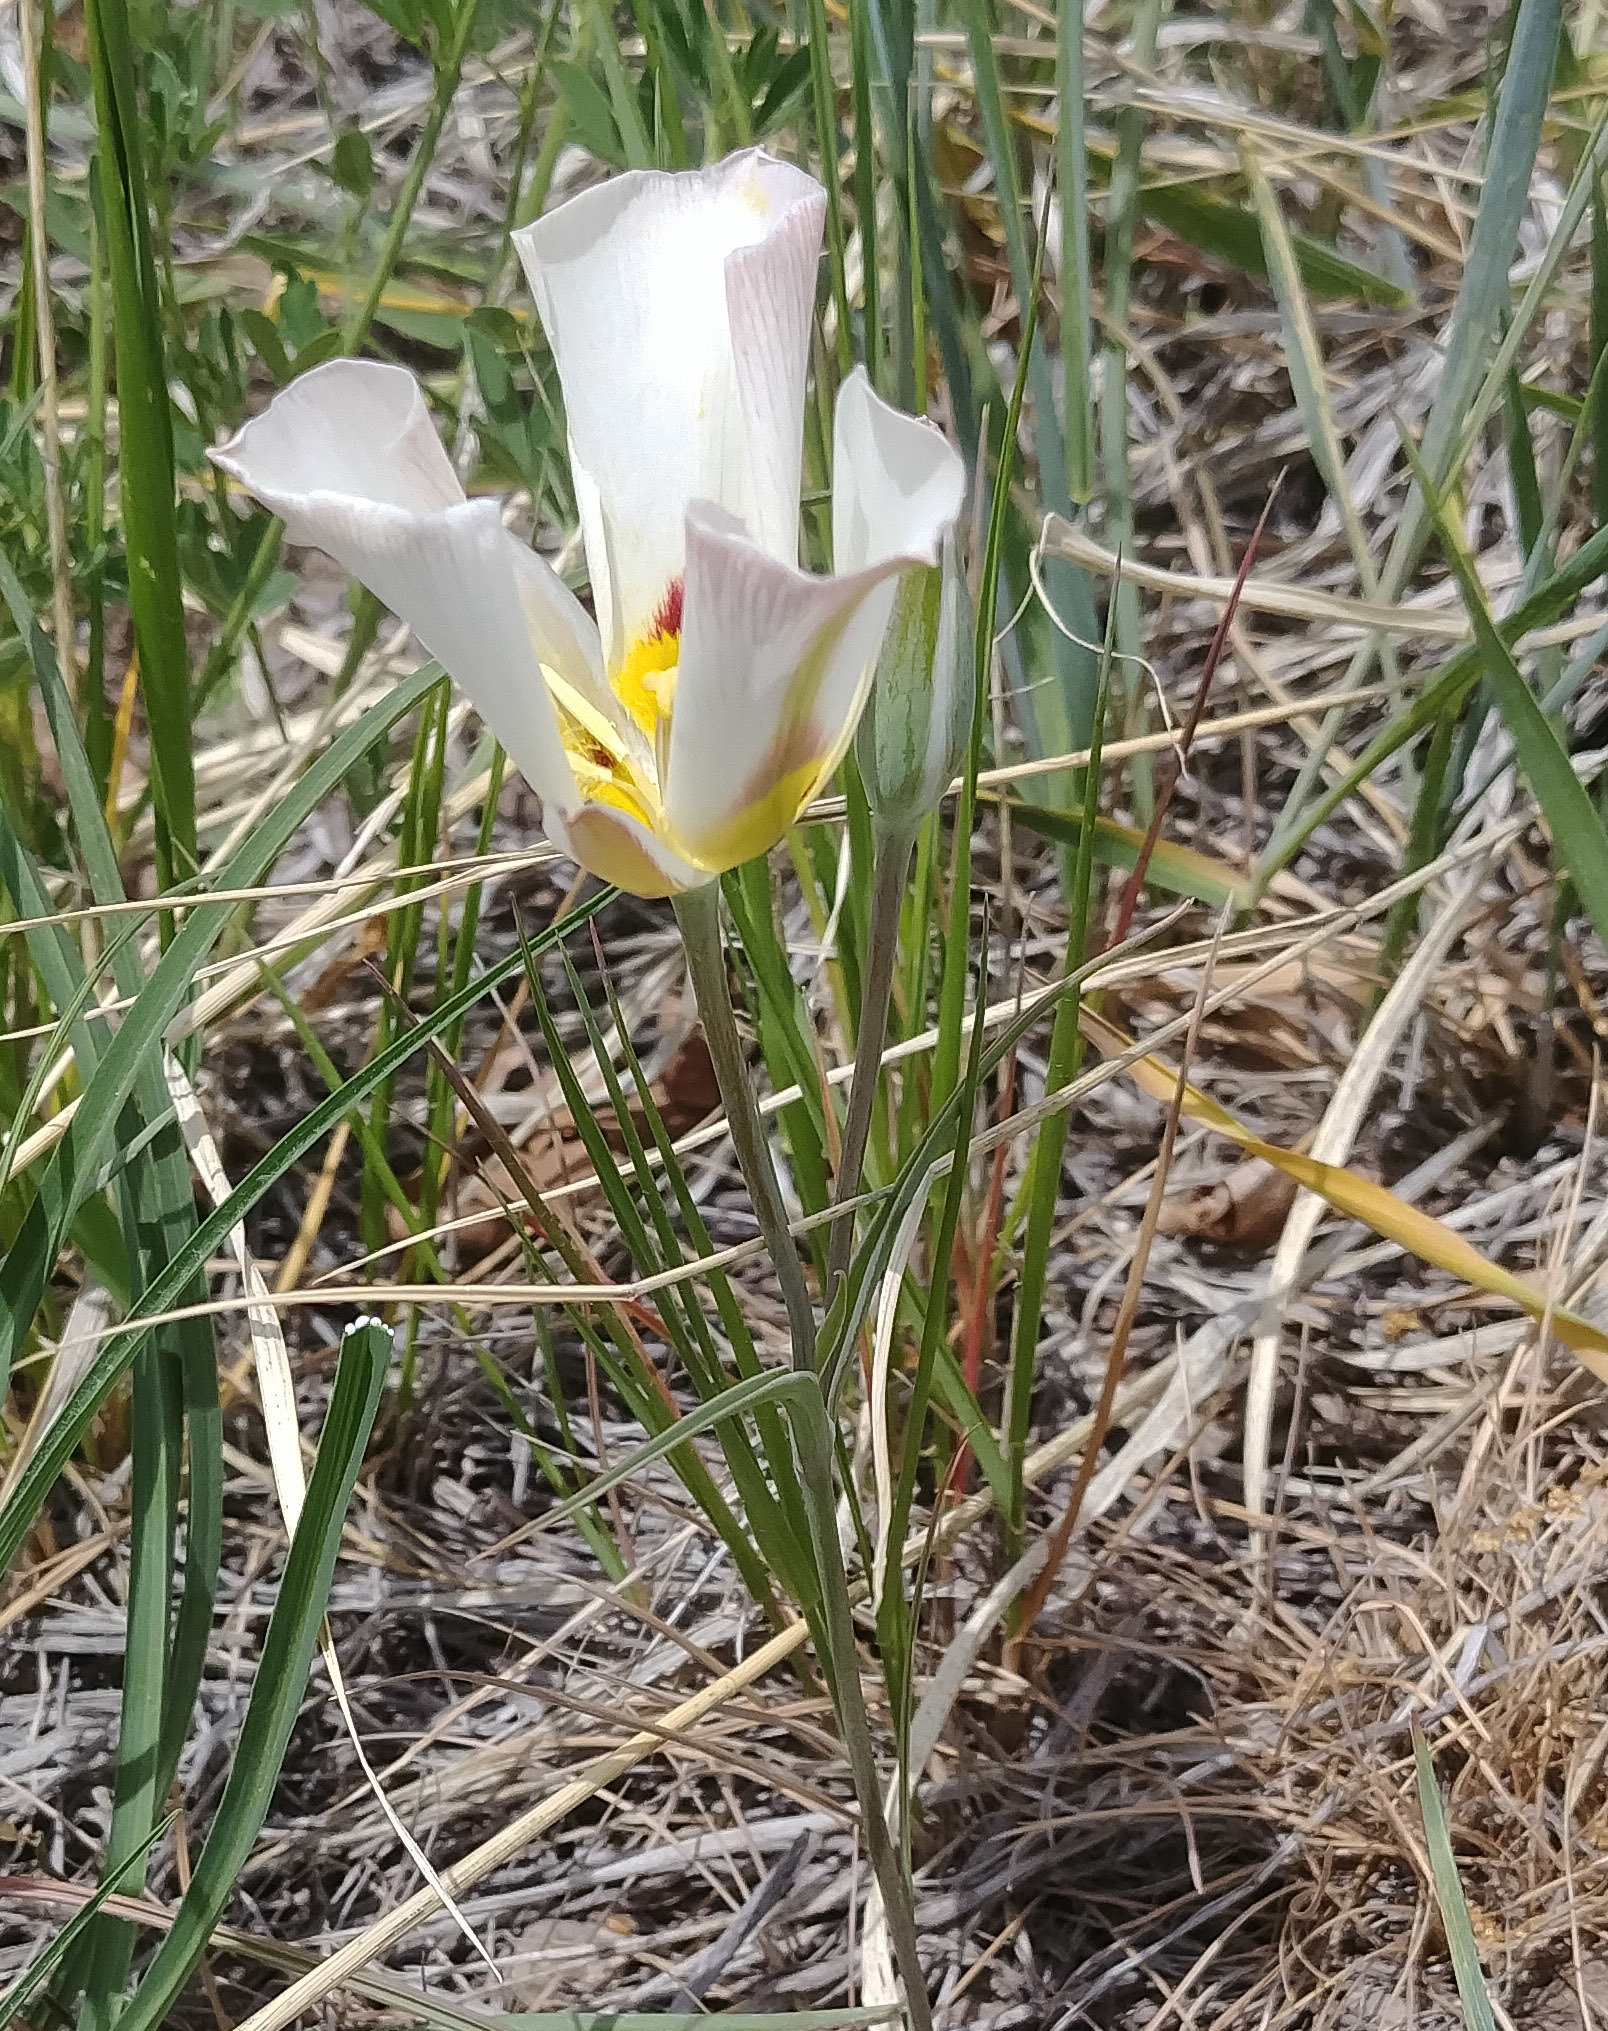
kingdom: Plantae
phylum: Tracheophyta
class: Liliopsida
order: Liliales
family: Liliaceae
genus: Calochortus
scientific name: Calochortus nuttallii
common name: Sego-lily
